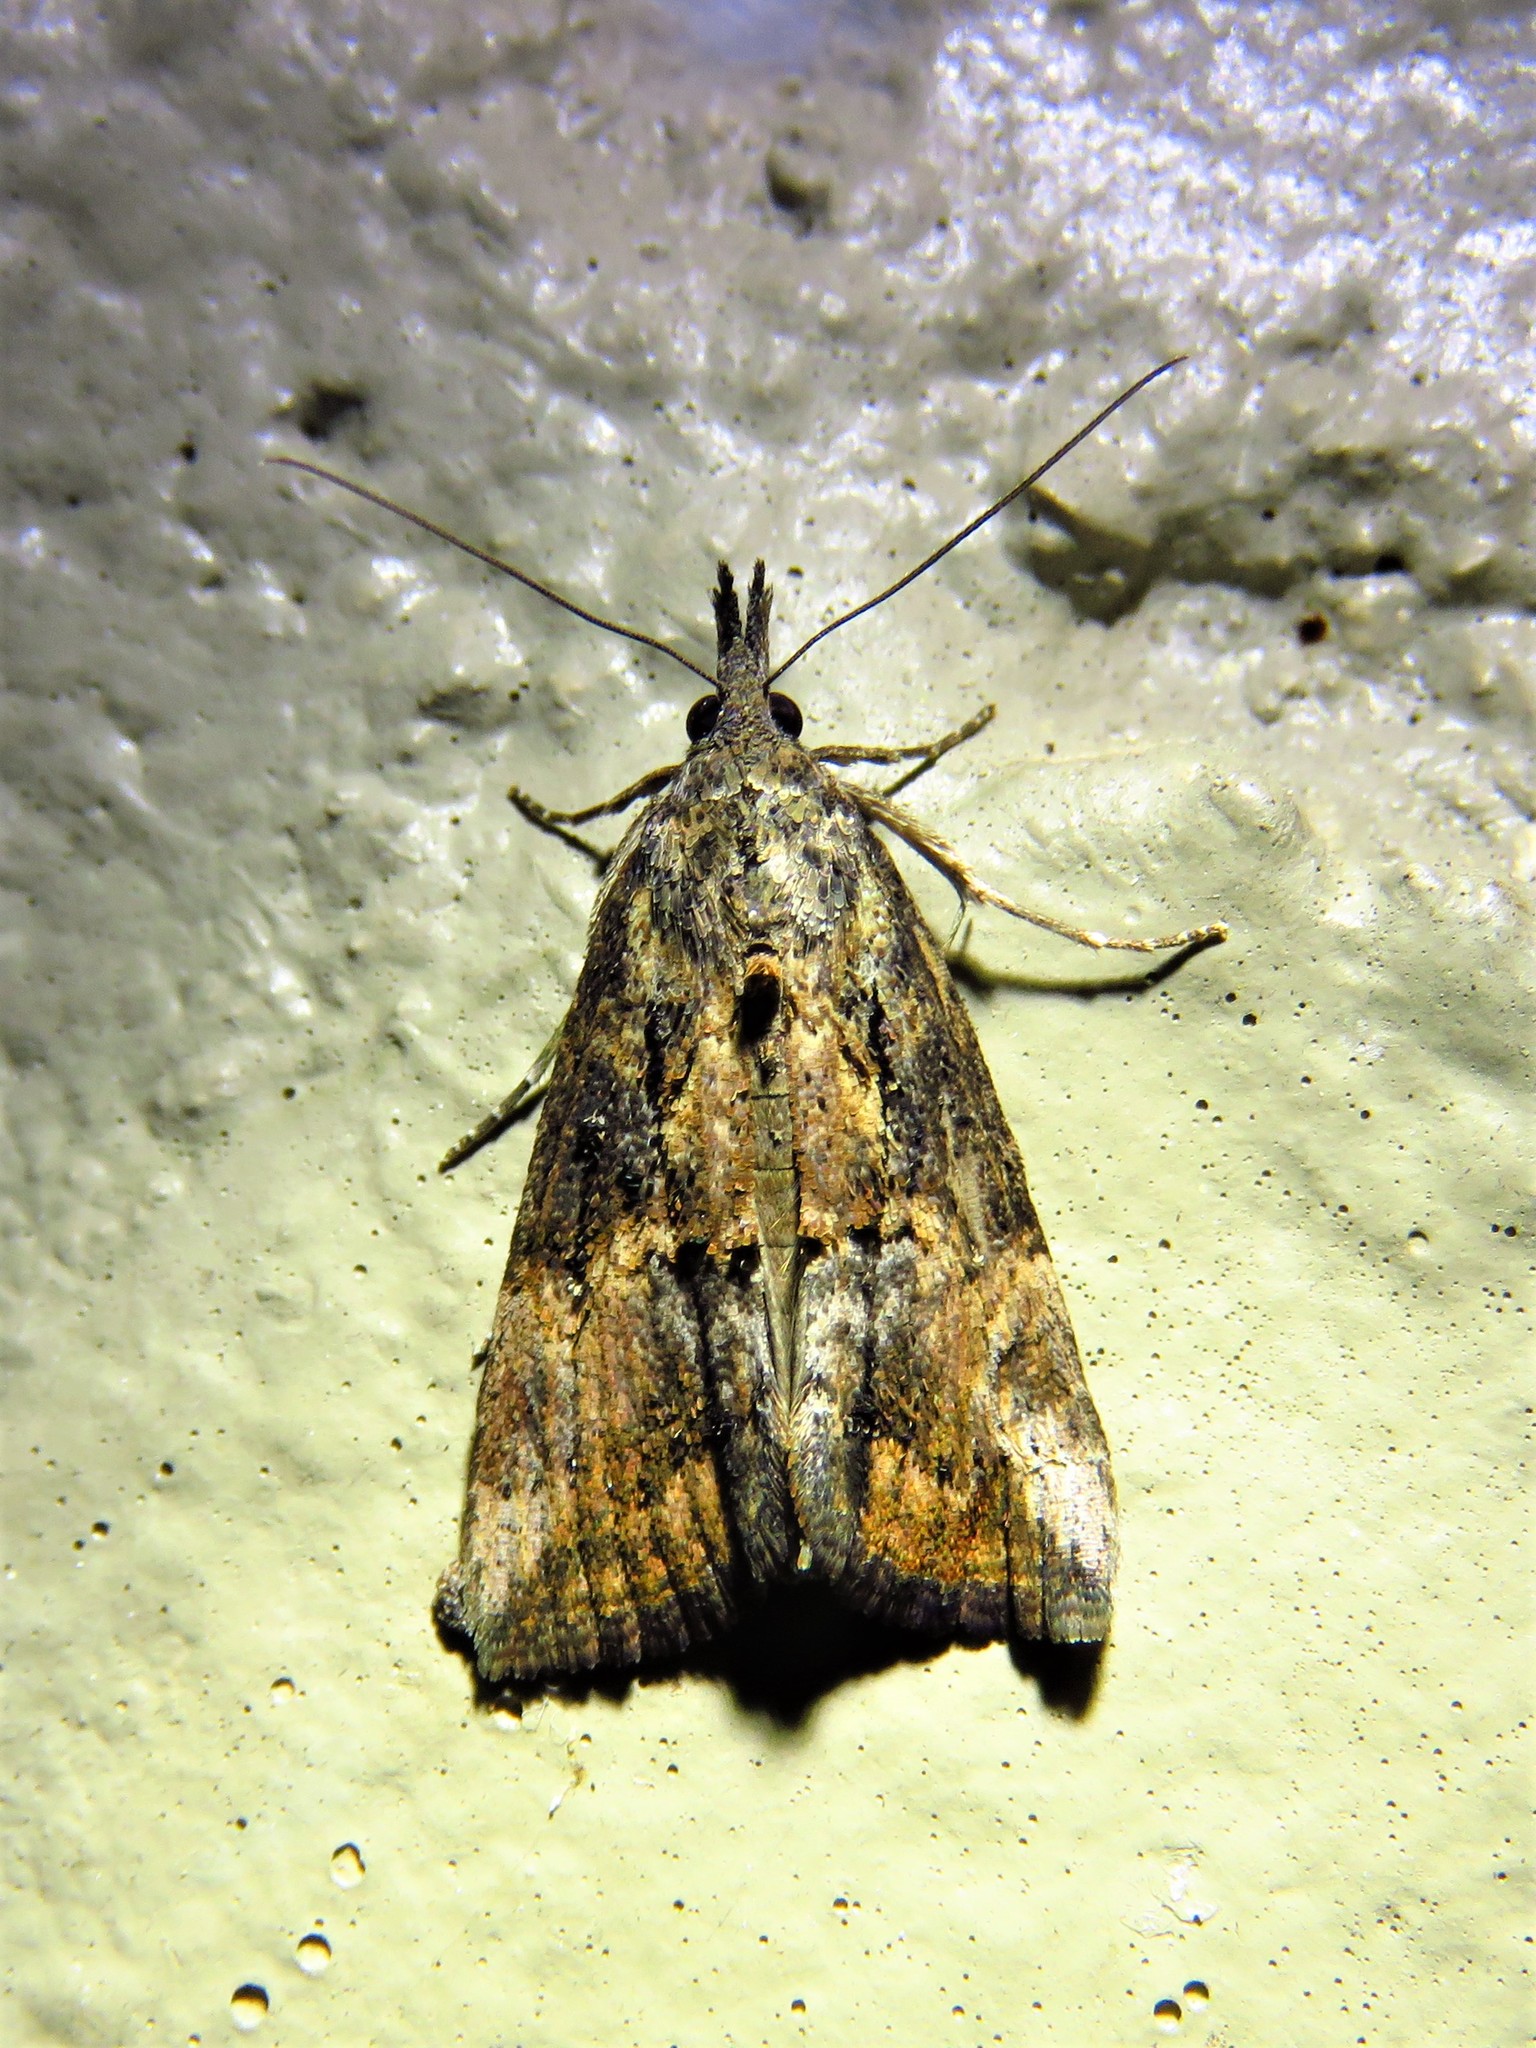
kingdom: Animalia
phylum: Arthropoda
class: Insecta
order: Lepidoptera
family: Erebidae
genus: Hypena
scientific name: Hypena scabra
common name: Green cloverworm
